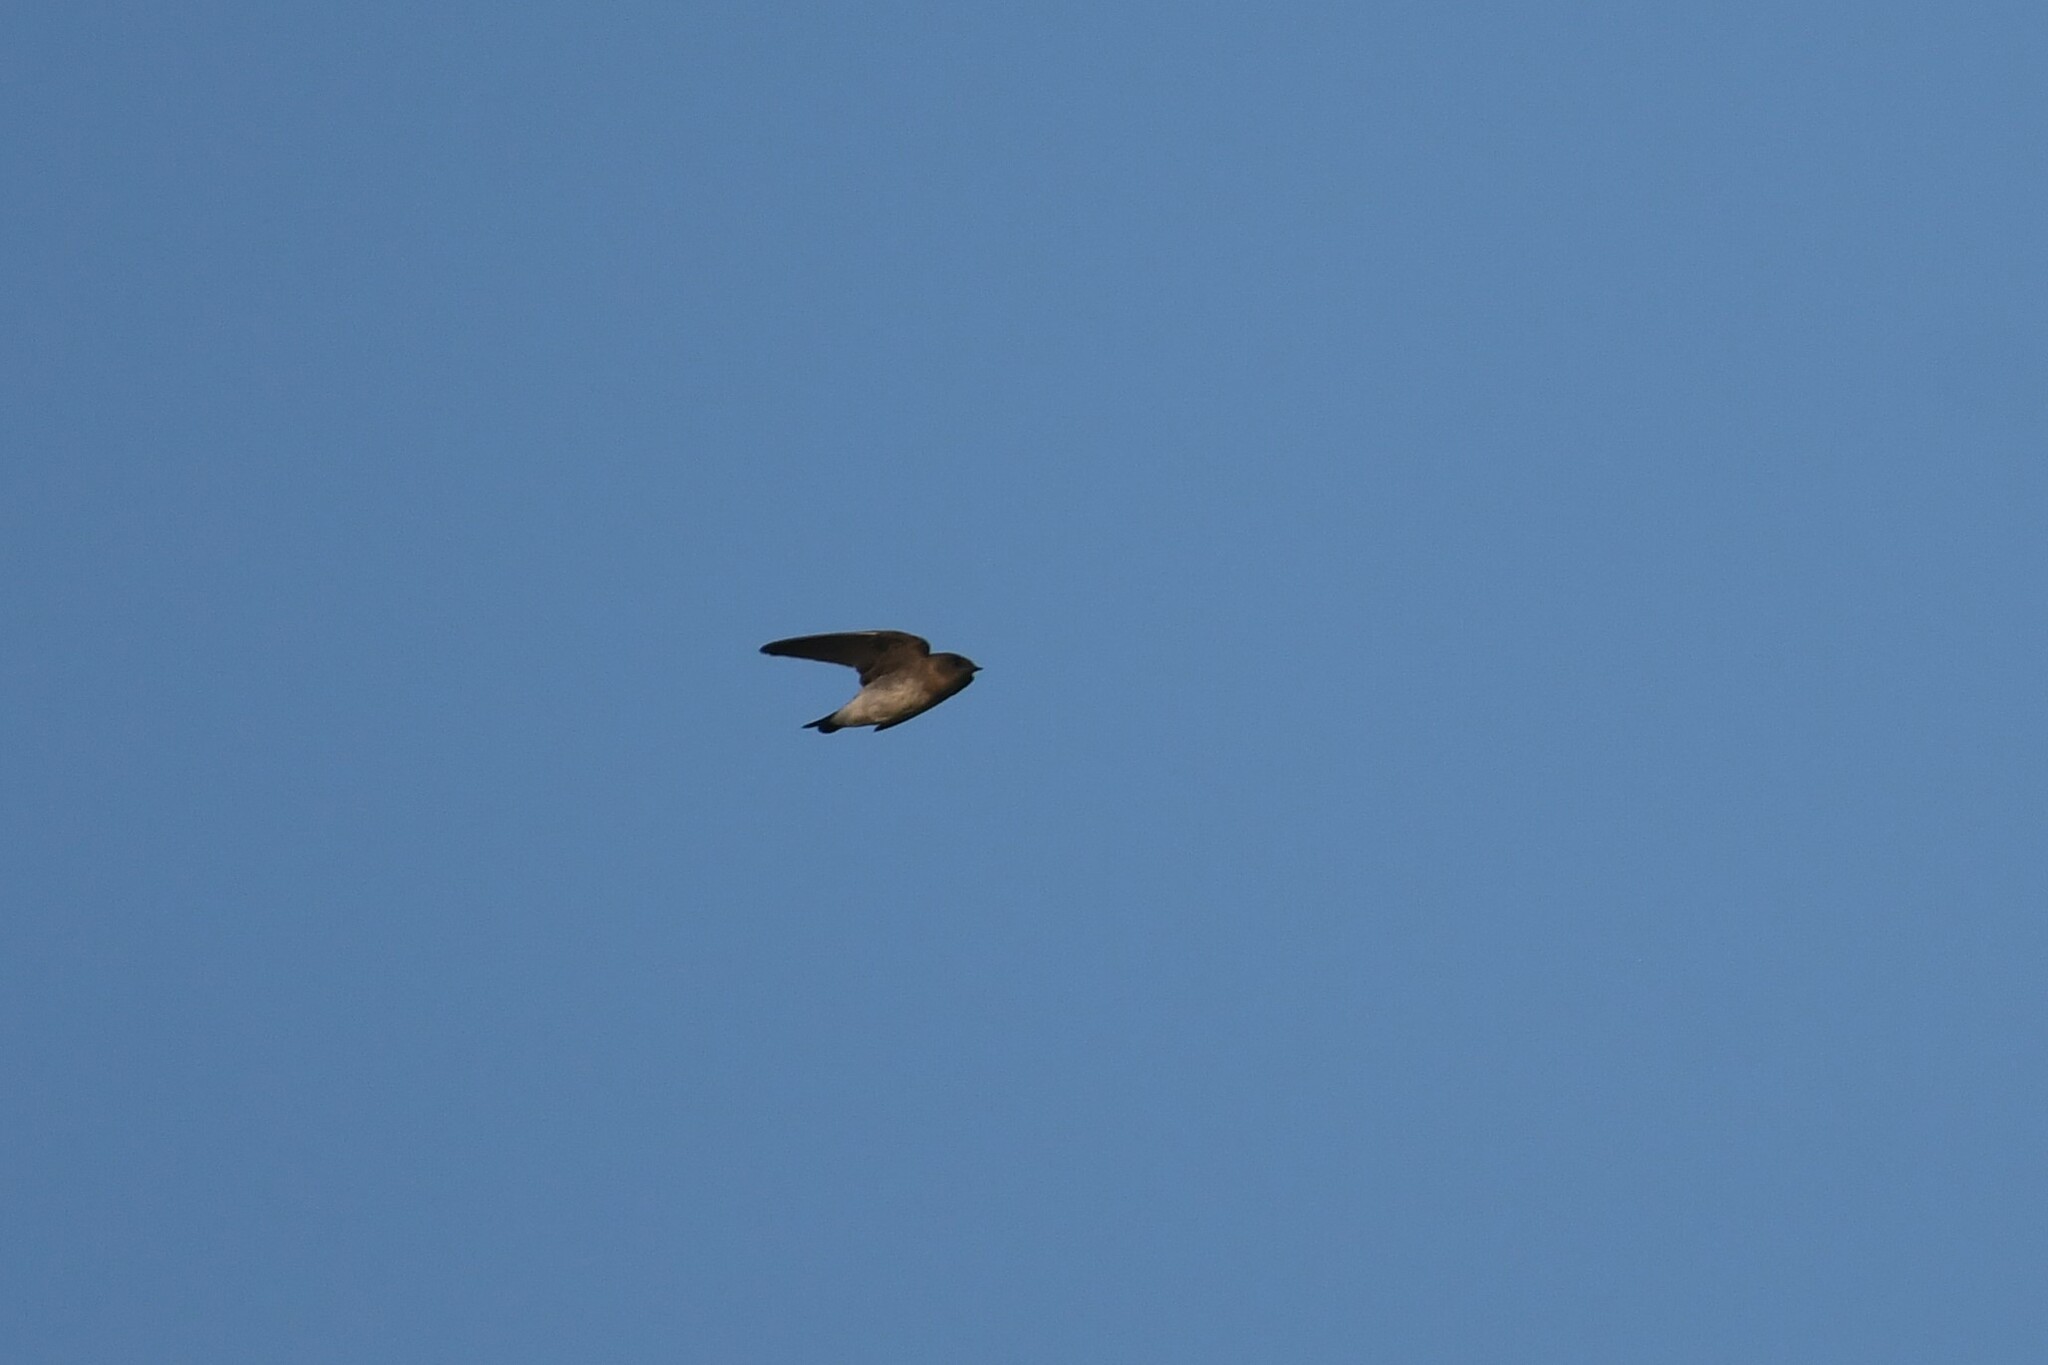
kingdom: Animalia
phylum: Chordata
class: Aves
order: Passeriformes
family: Hirundinidae
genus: Stelgidopteryx
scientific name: Stelgidopteryx serripennis
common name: Northern rough-winged swallow
